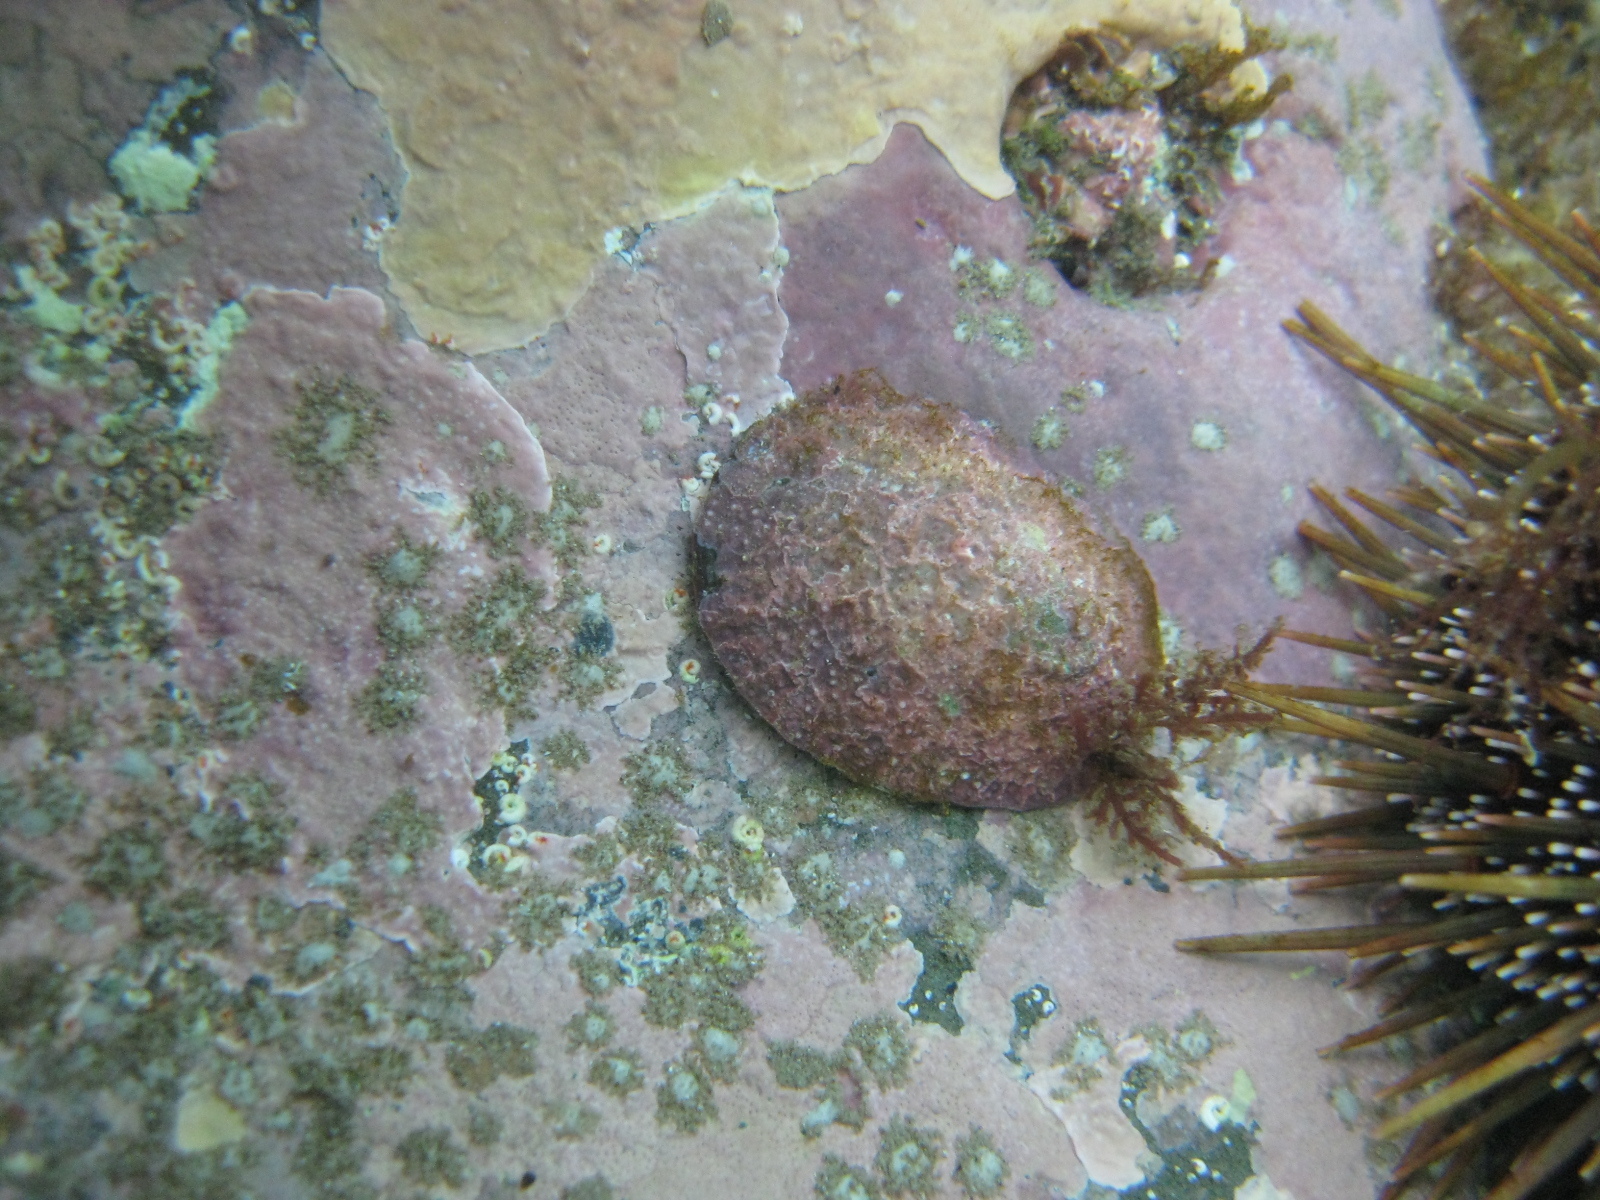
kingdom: Animalia
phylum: Mollusca
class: Gastropoda
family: Nacellidae
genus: Cellana
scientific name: Cellana stellifera
